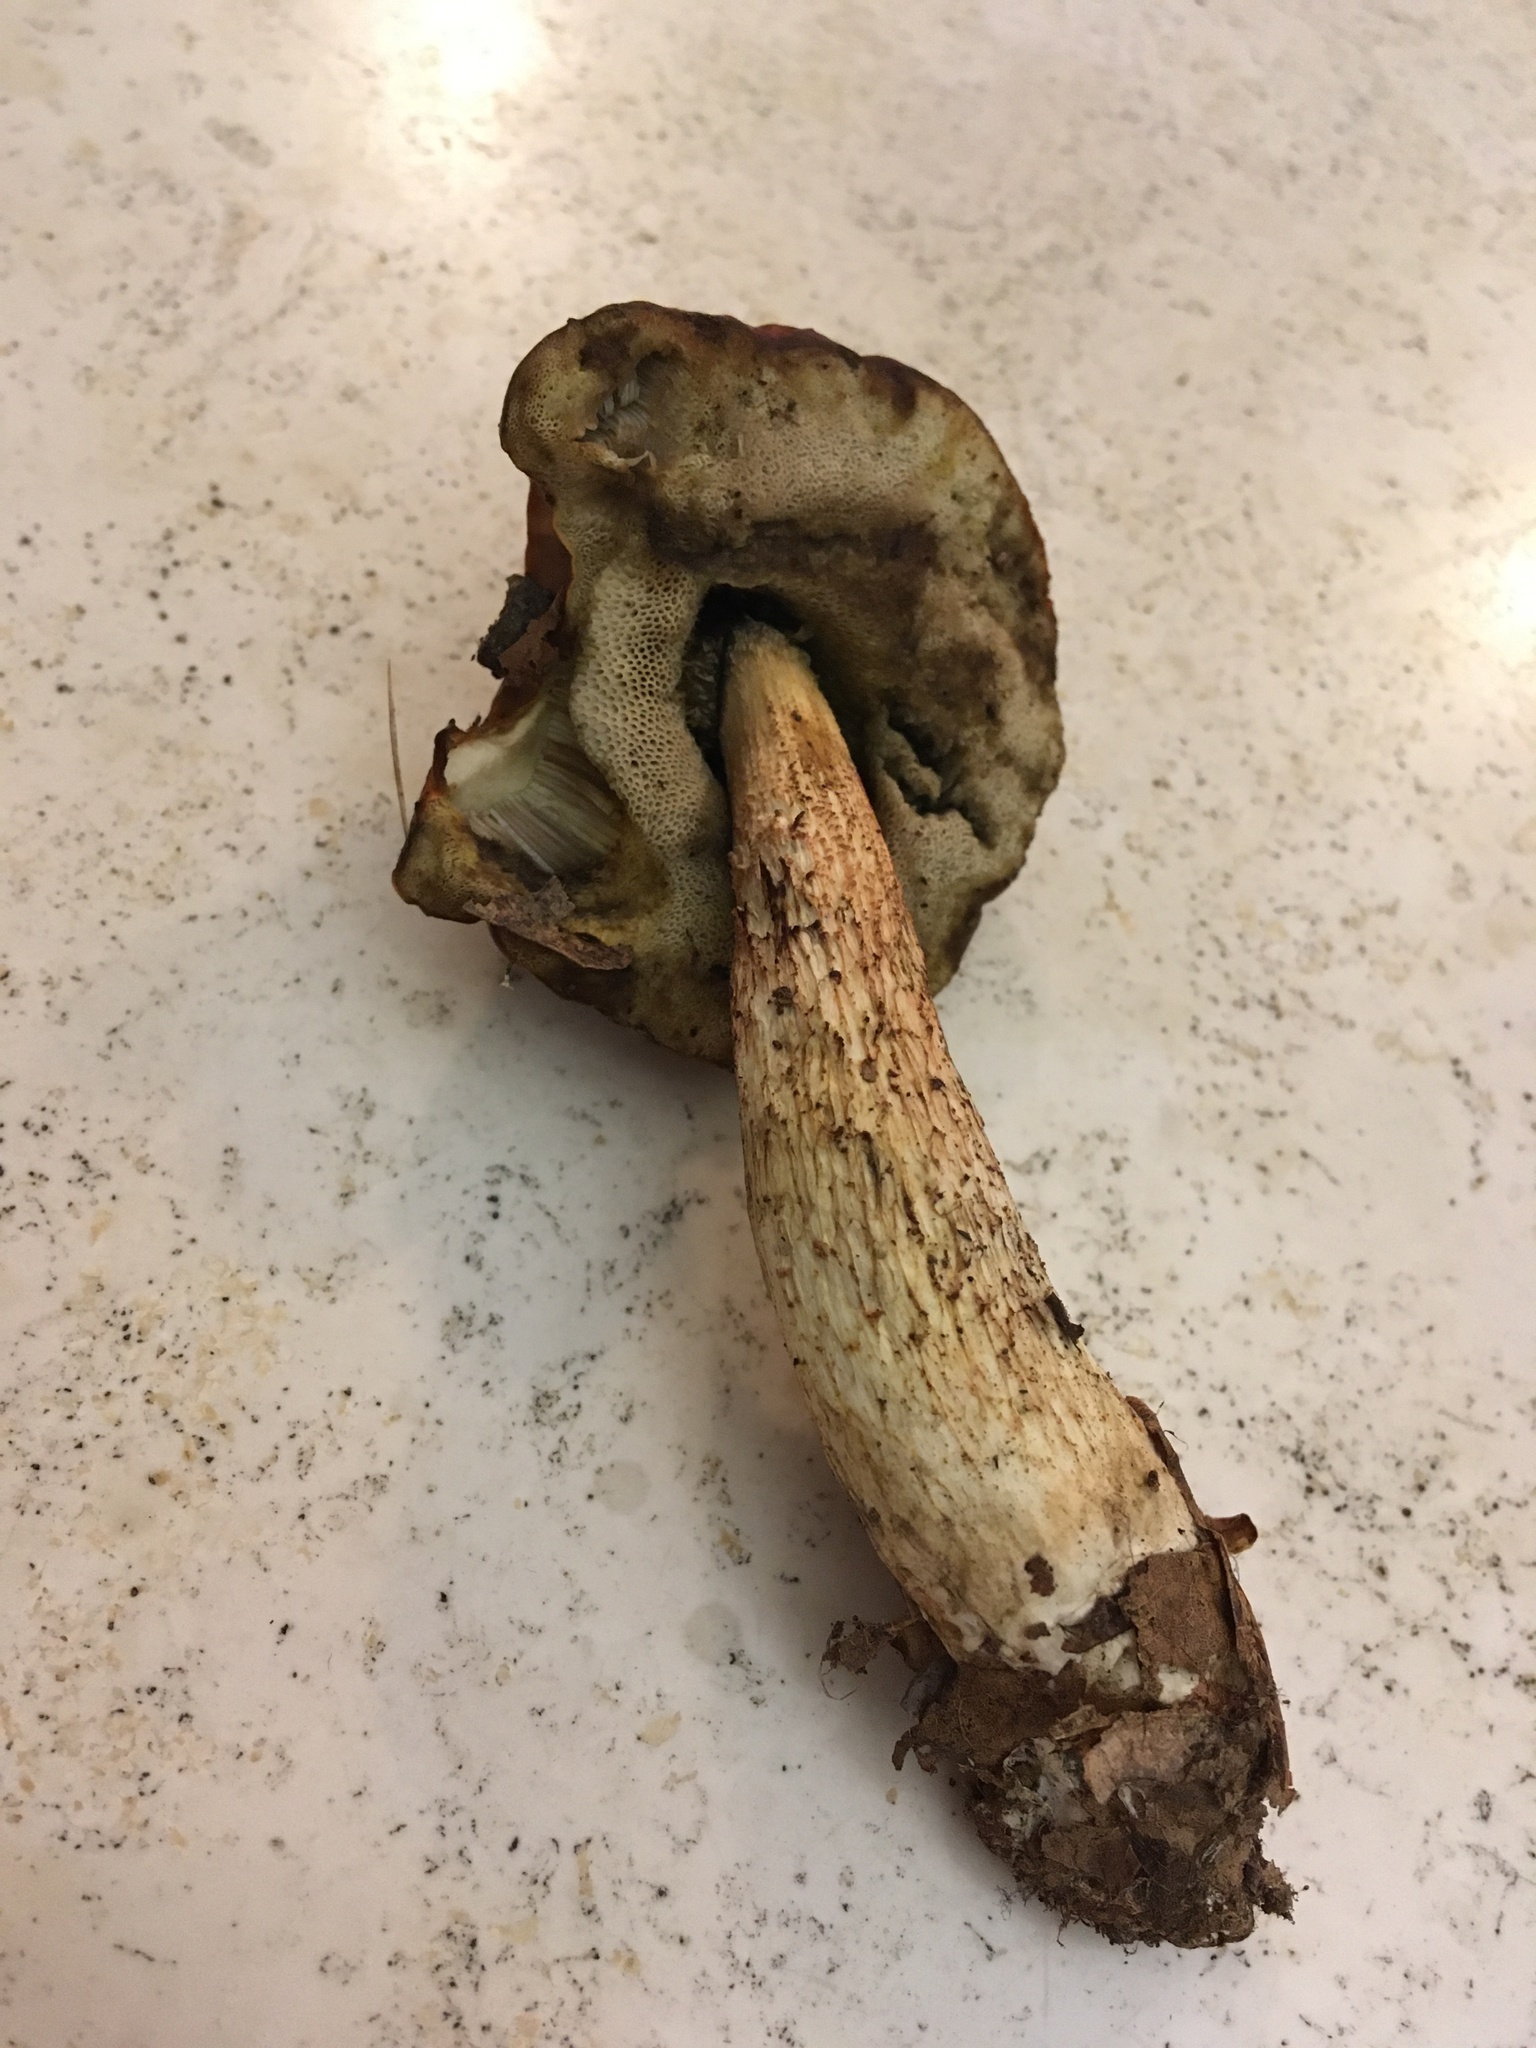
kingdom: Fungi
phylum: Basidiomycota
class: Agaricomycetes
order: Boletales
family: Boletaceae
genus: Leccinum
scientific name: Leccinum longicurvipes
